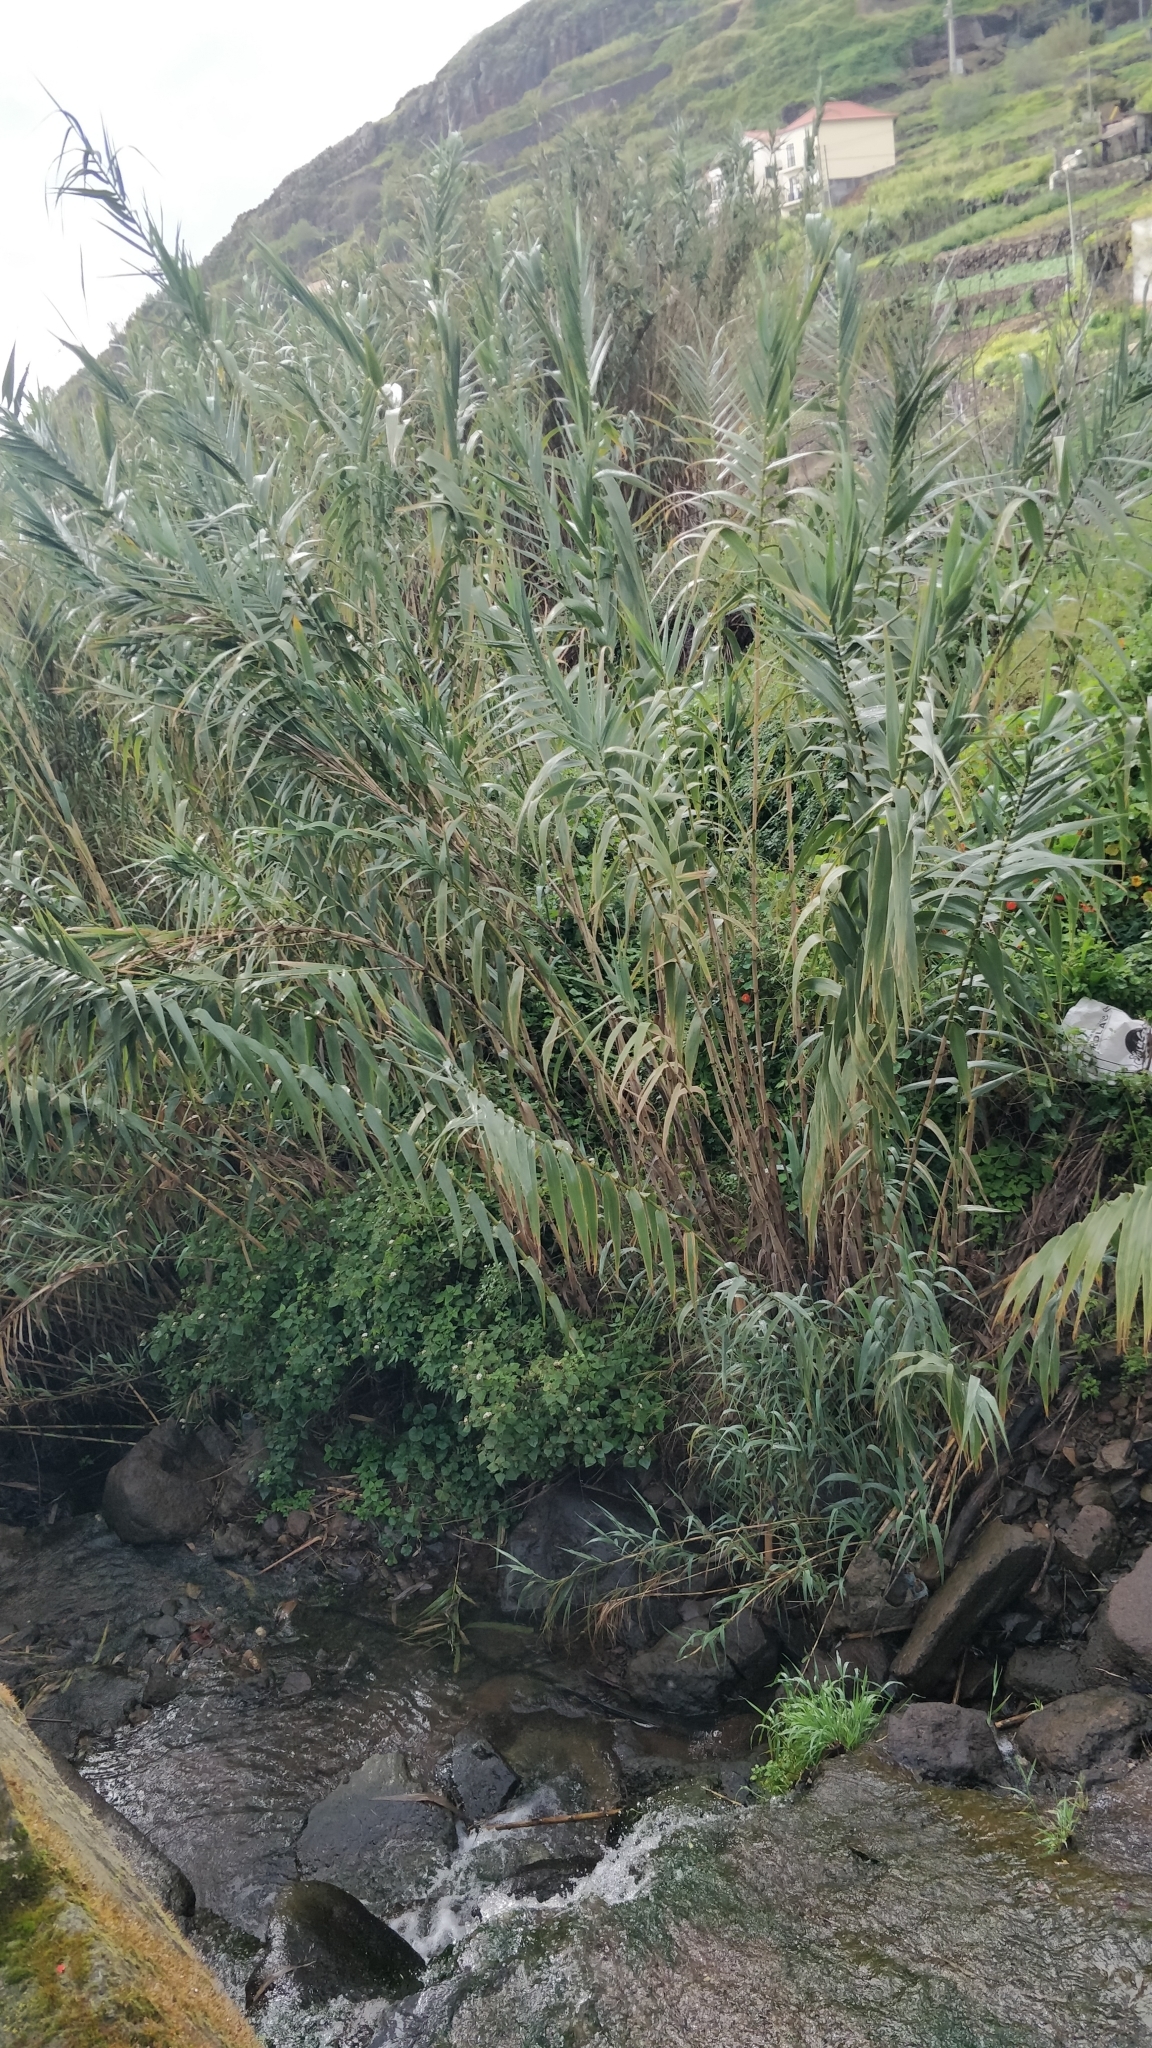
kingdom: Plantae
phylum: Tracheophyta
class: Liliopsida
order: Poales
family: Poaceae
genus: Arundo
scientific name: Arundo donax
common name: Giant reed
